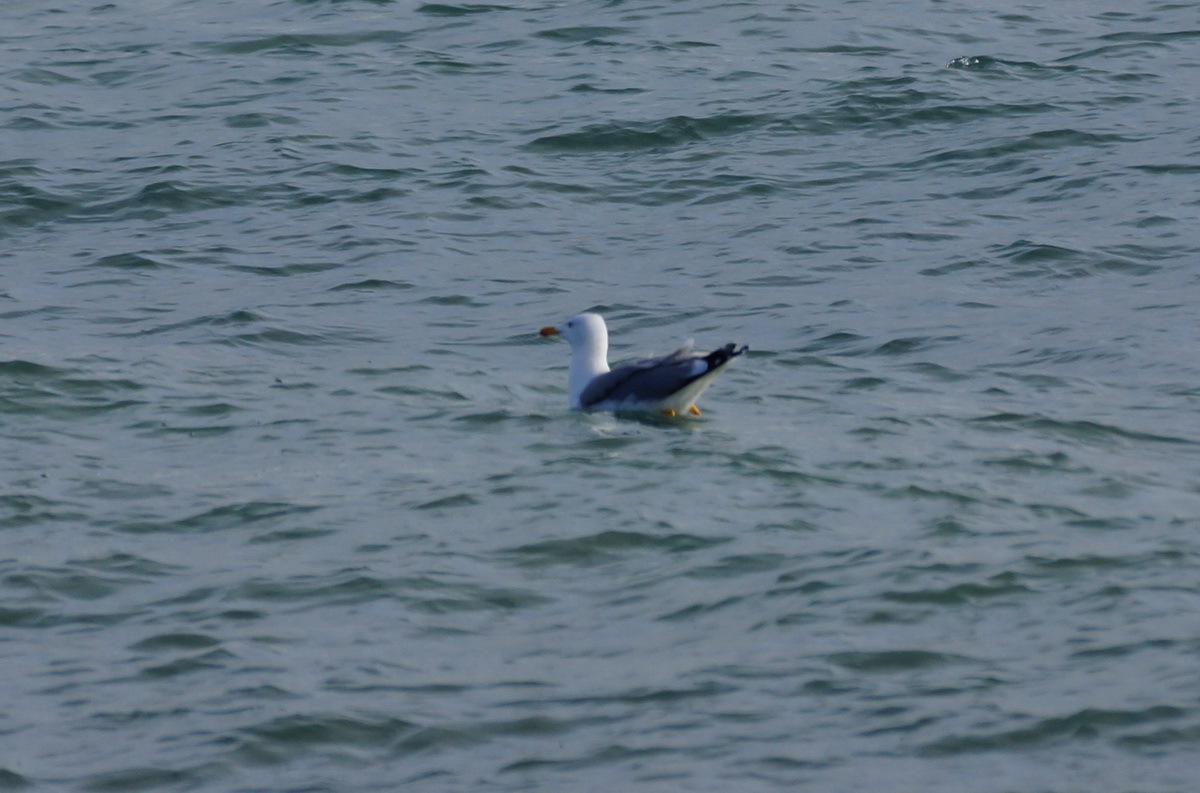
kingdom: Animalia
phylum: Chordata
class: Aves
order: Charadriiformes
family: Laridae
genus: Larus
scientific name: Larus michahellis
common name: Yellow-legged gull
